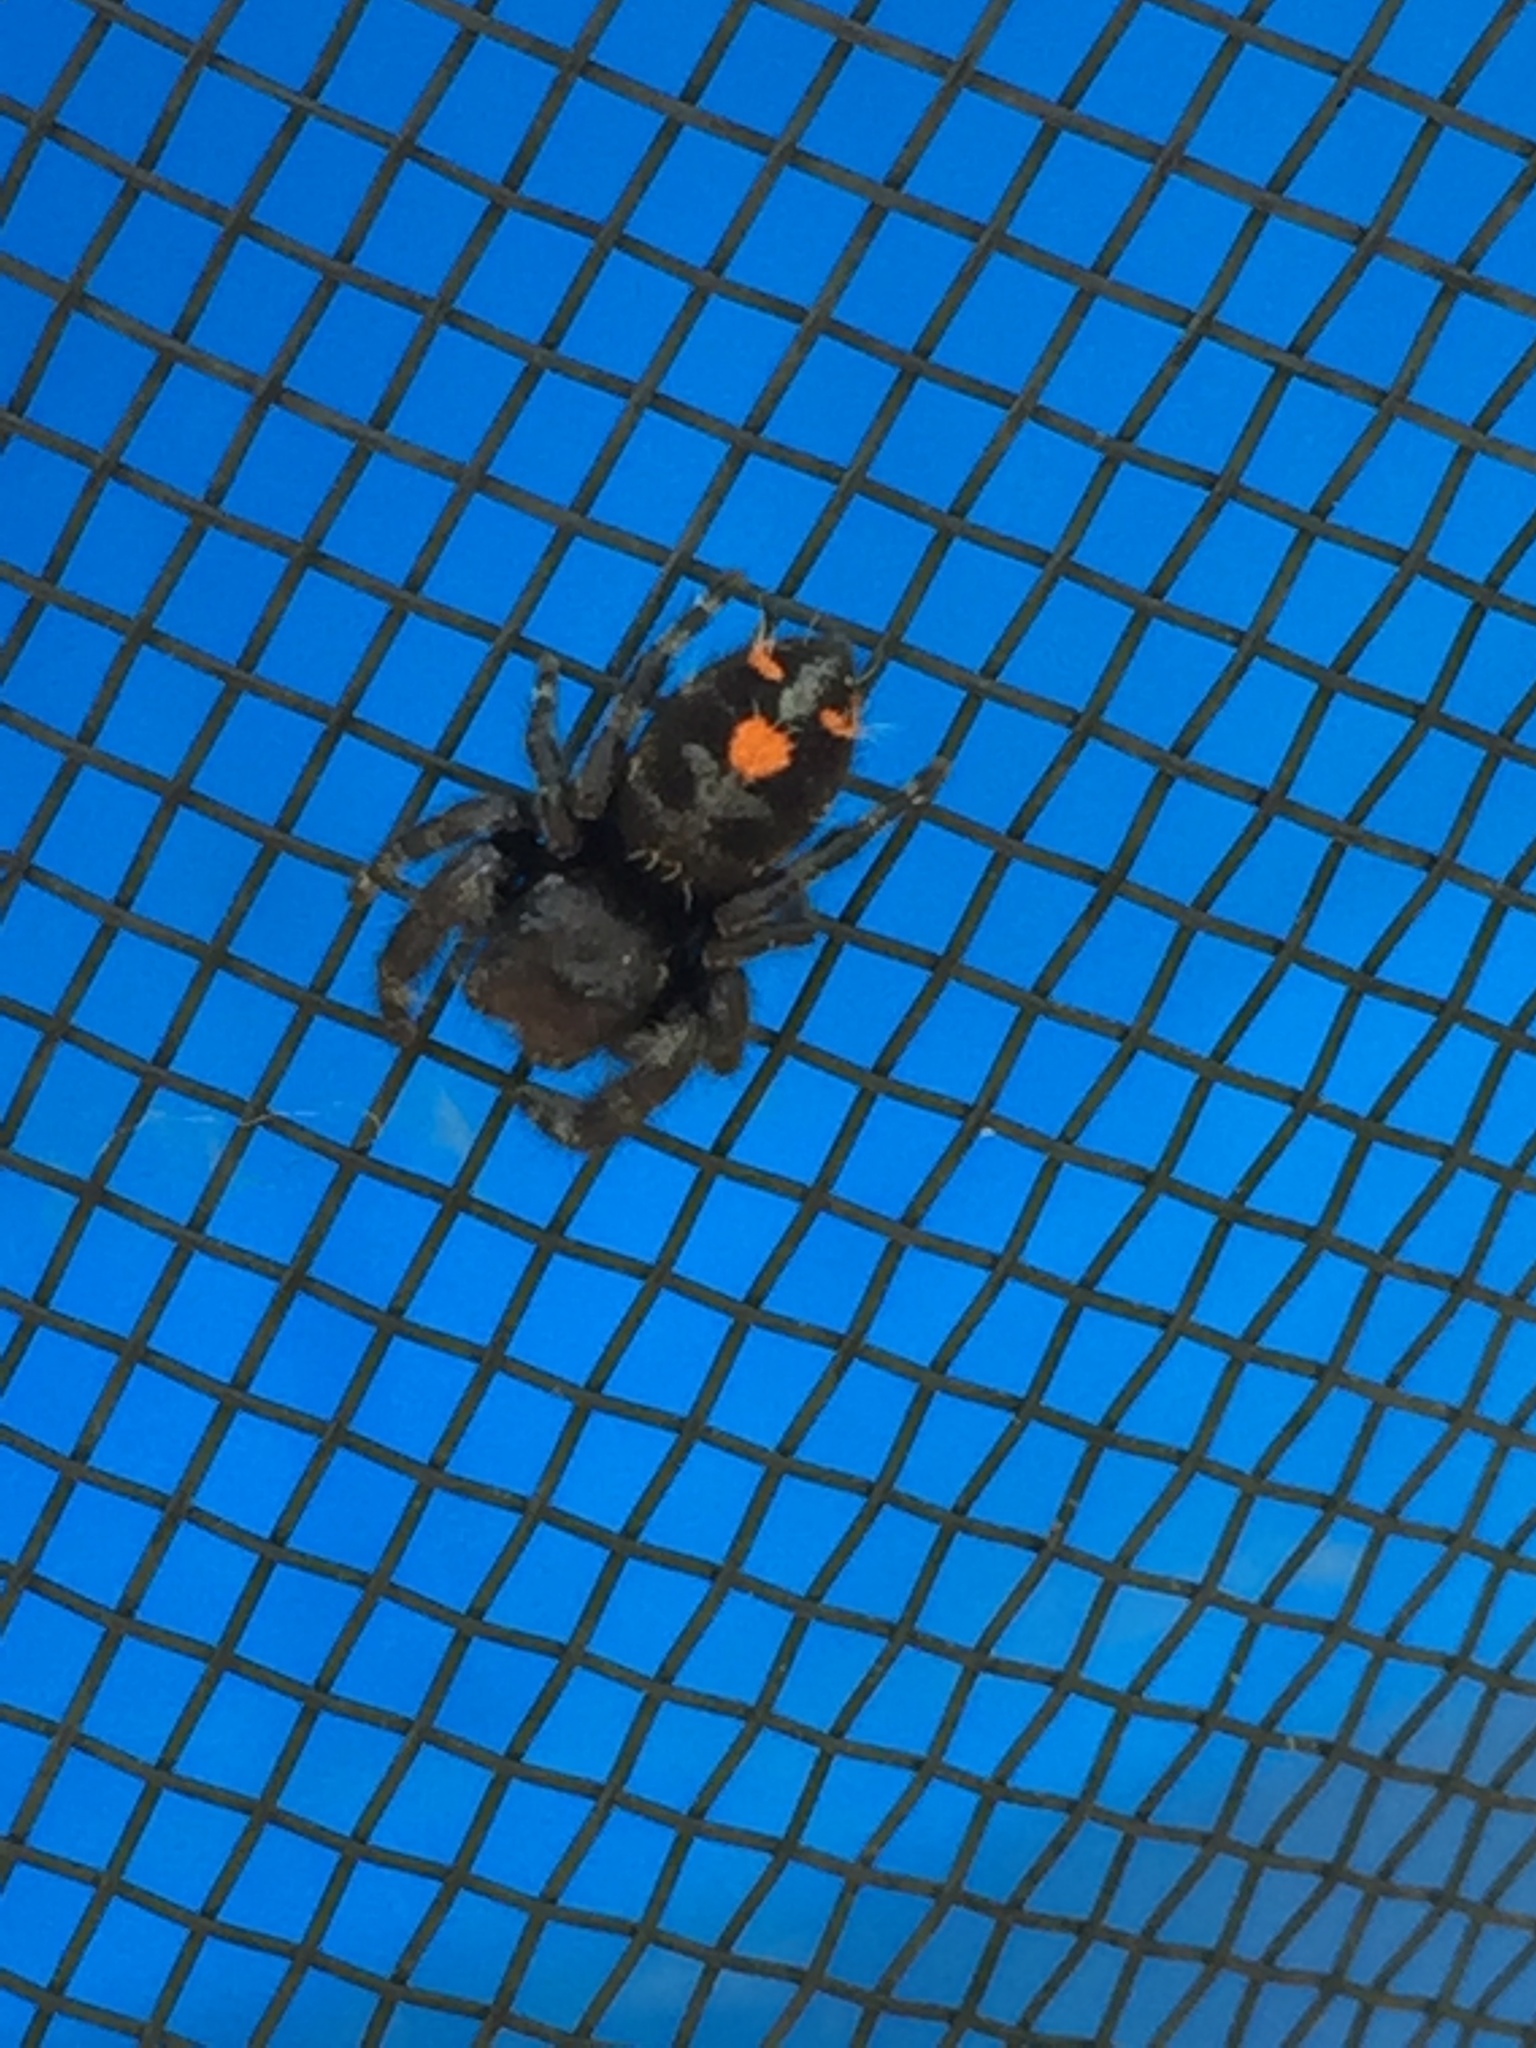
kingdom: Animalia
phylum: Arthropoda
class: Arachnida
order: Araneae
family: Salticidae
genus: Phidippus
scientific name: Phidippus audax
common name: Bold jumper
